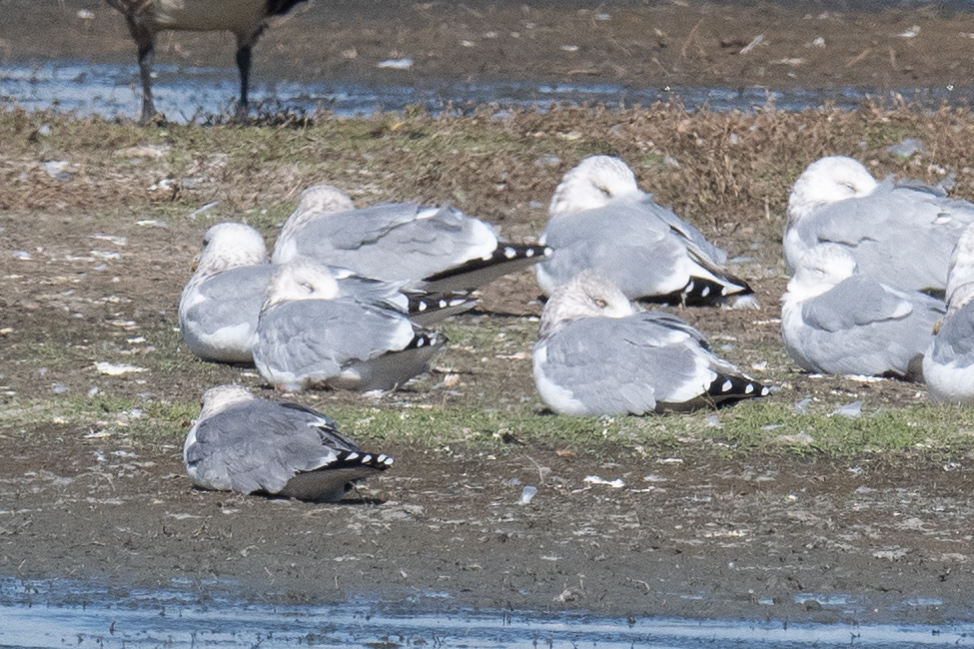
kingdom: Animalia
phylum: Chordata
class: Aves
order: Charadriiformes
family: Laridae
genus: Larus
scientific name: Larus argentatus
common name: Herring gull
